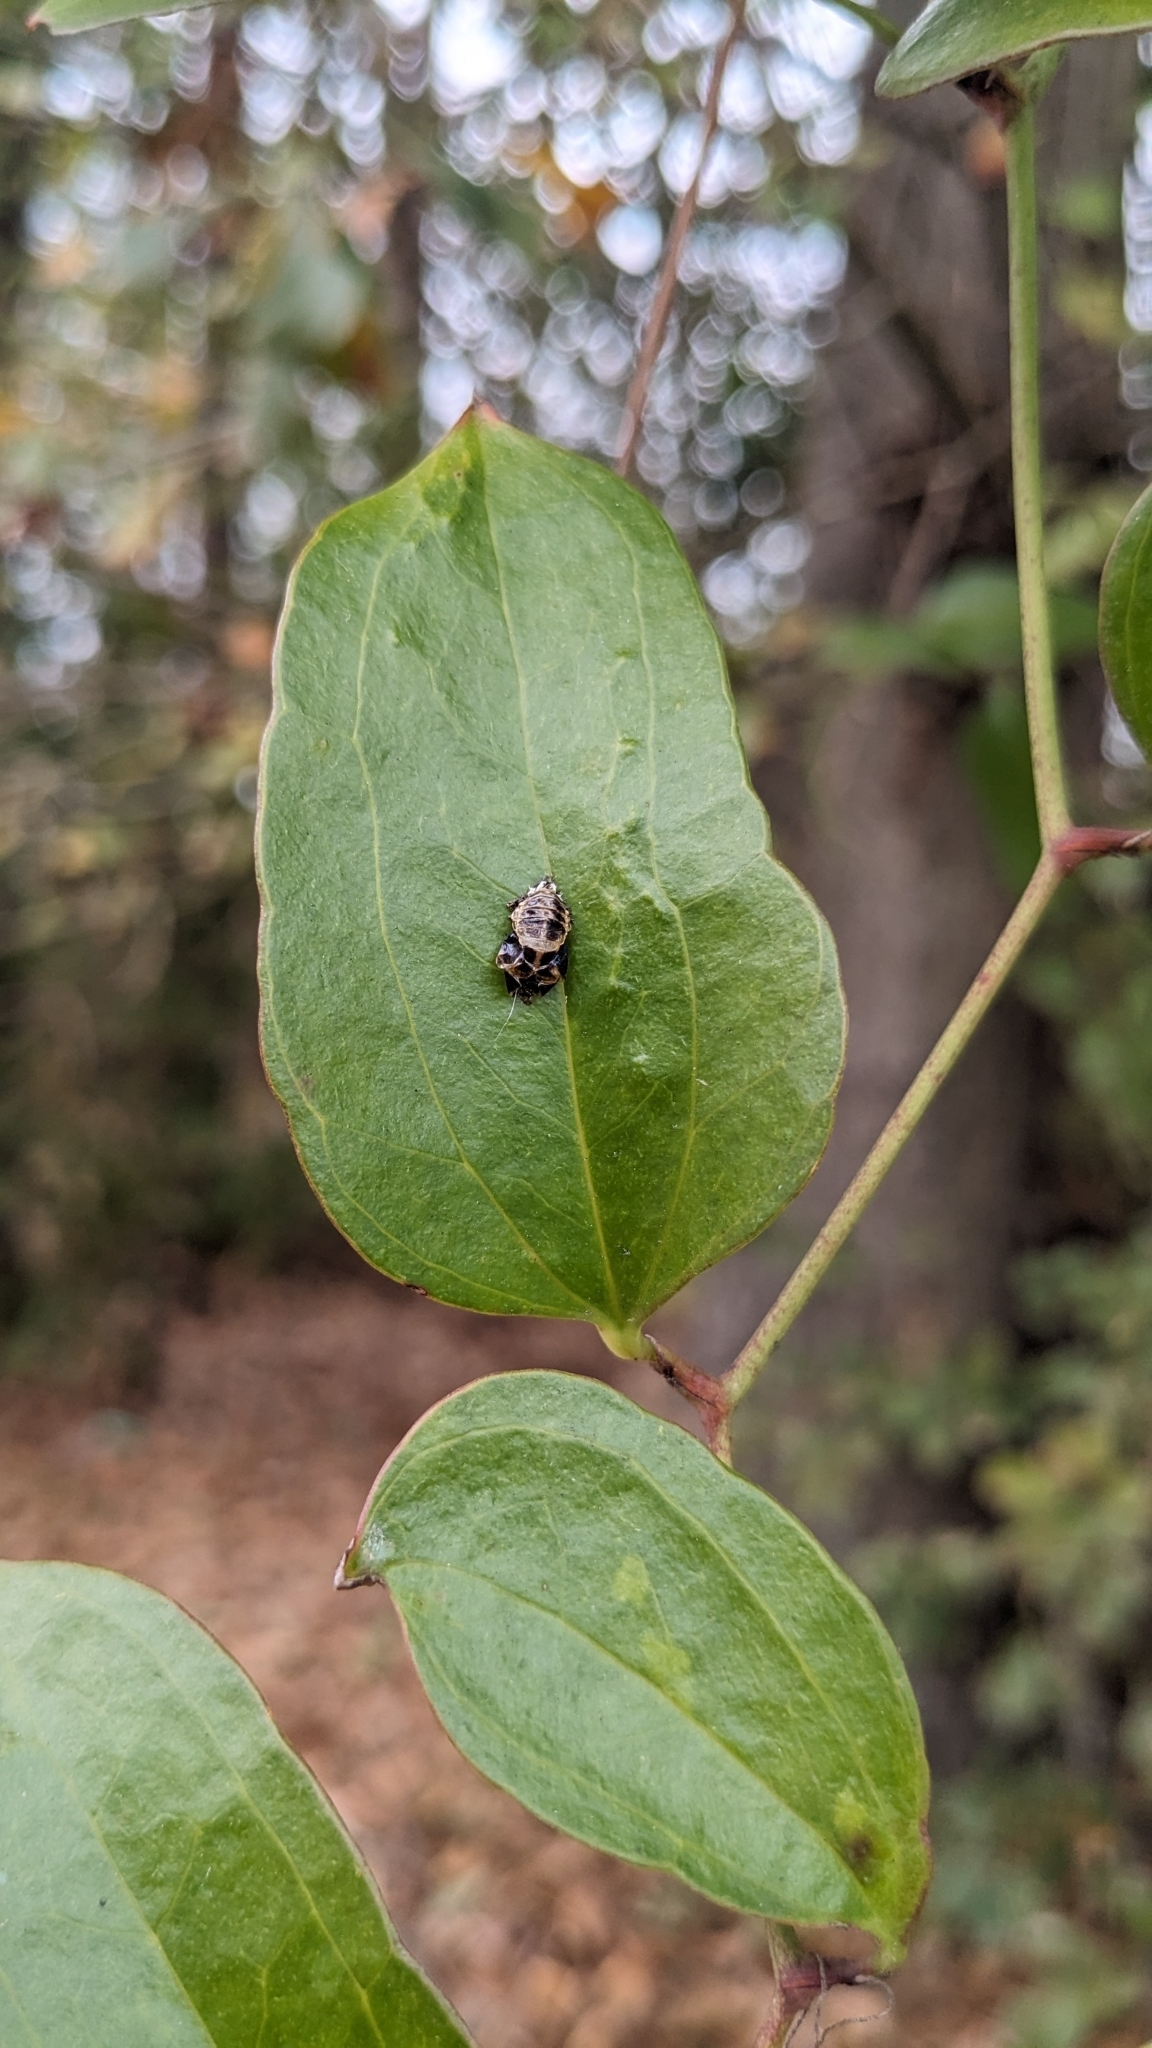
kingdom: Animalia
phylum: Arthropoda
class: Insecta
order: Coleoptera
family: Coccinellidae
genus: Harmonia
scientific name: Harmonia axyridis
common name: Harlequin ladybird
